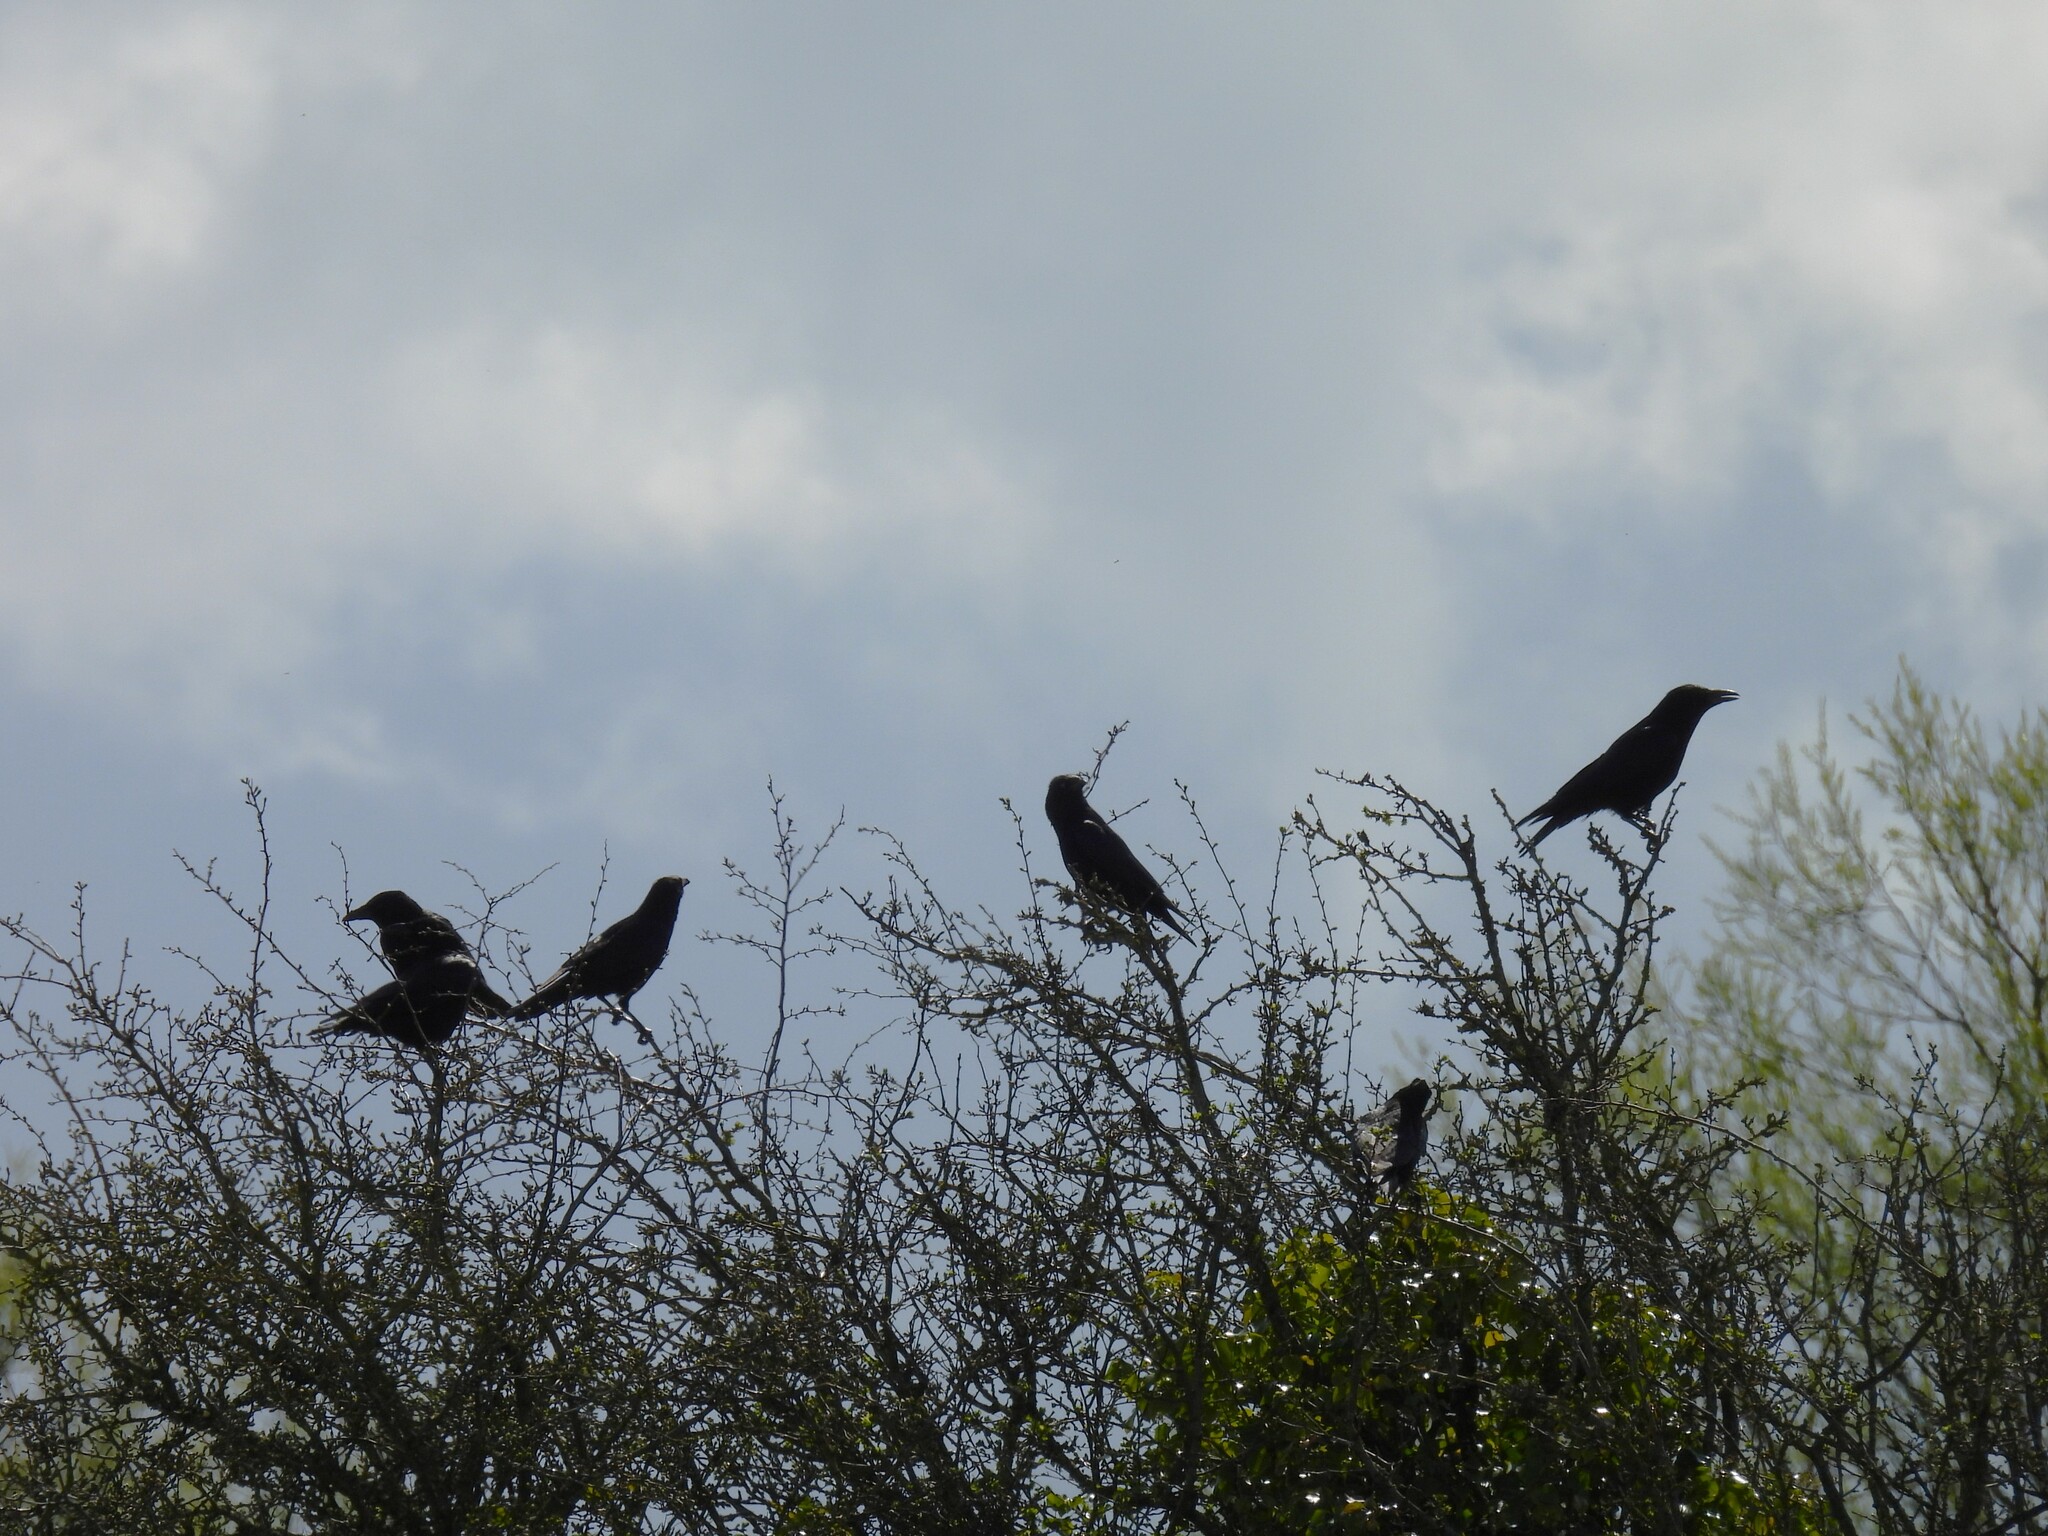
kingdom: Animalia
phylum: Chordata
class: Aves
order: Passeriformes
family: Corvidae
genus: Corvus
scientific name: Corvus corone
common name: Carrion crow
